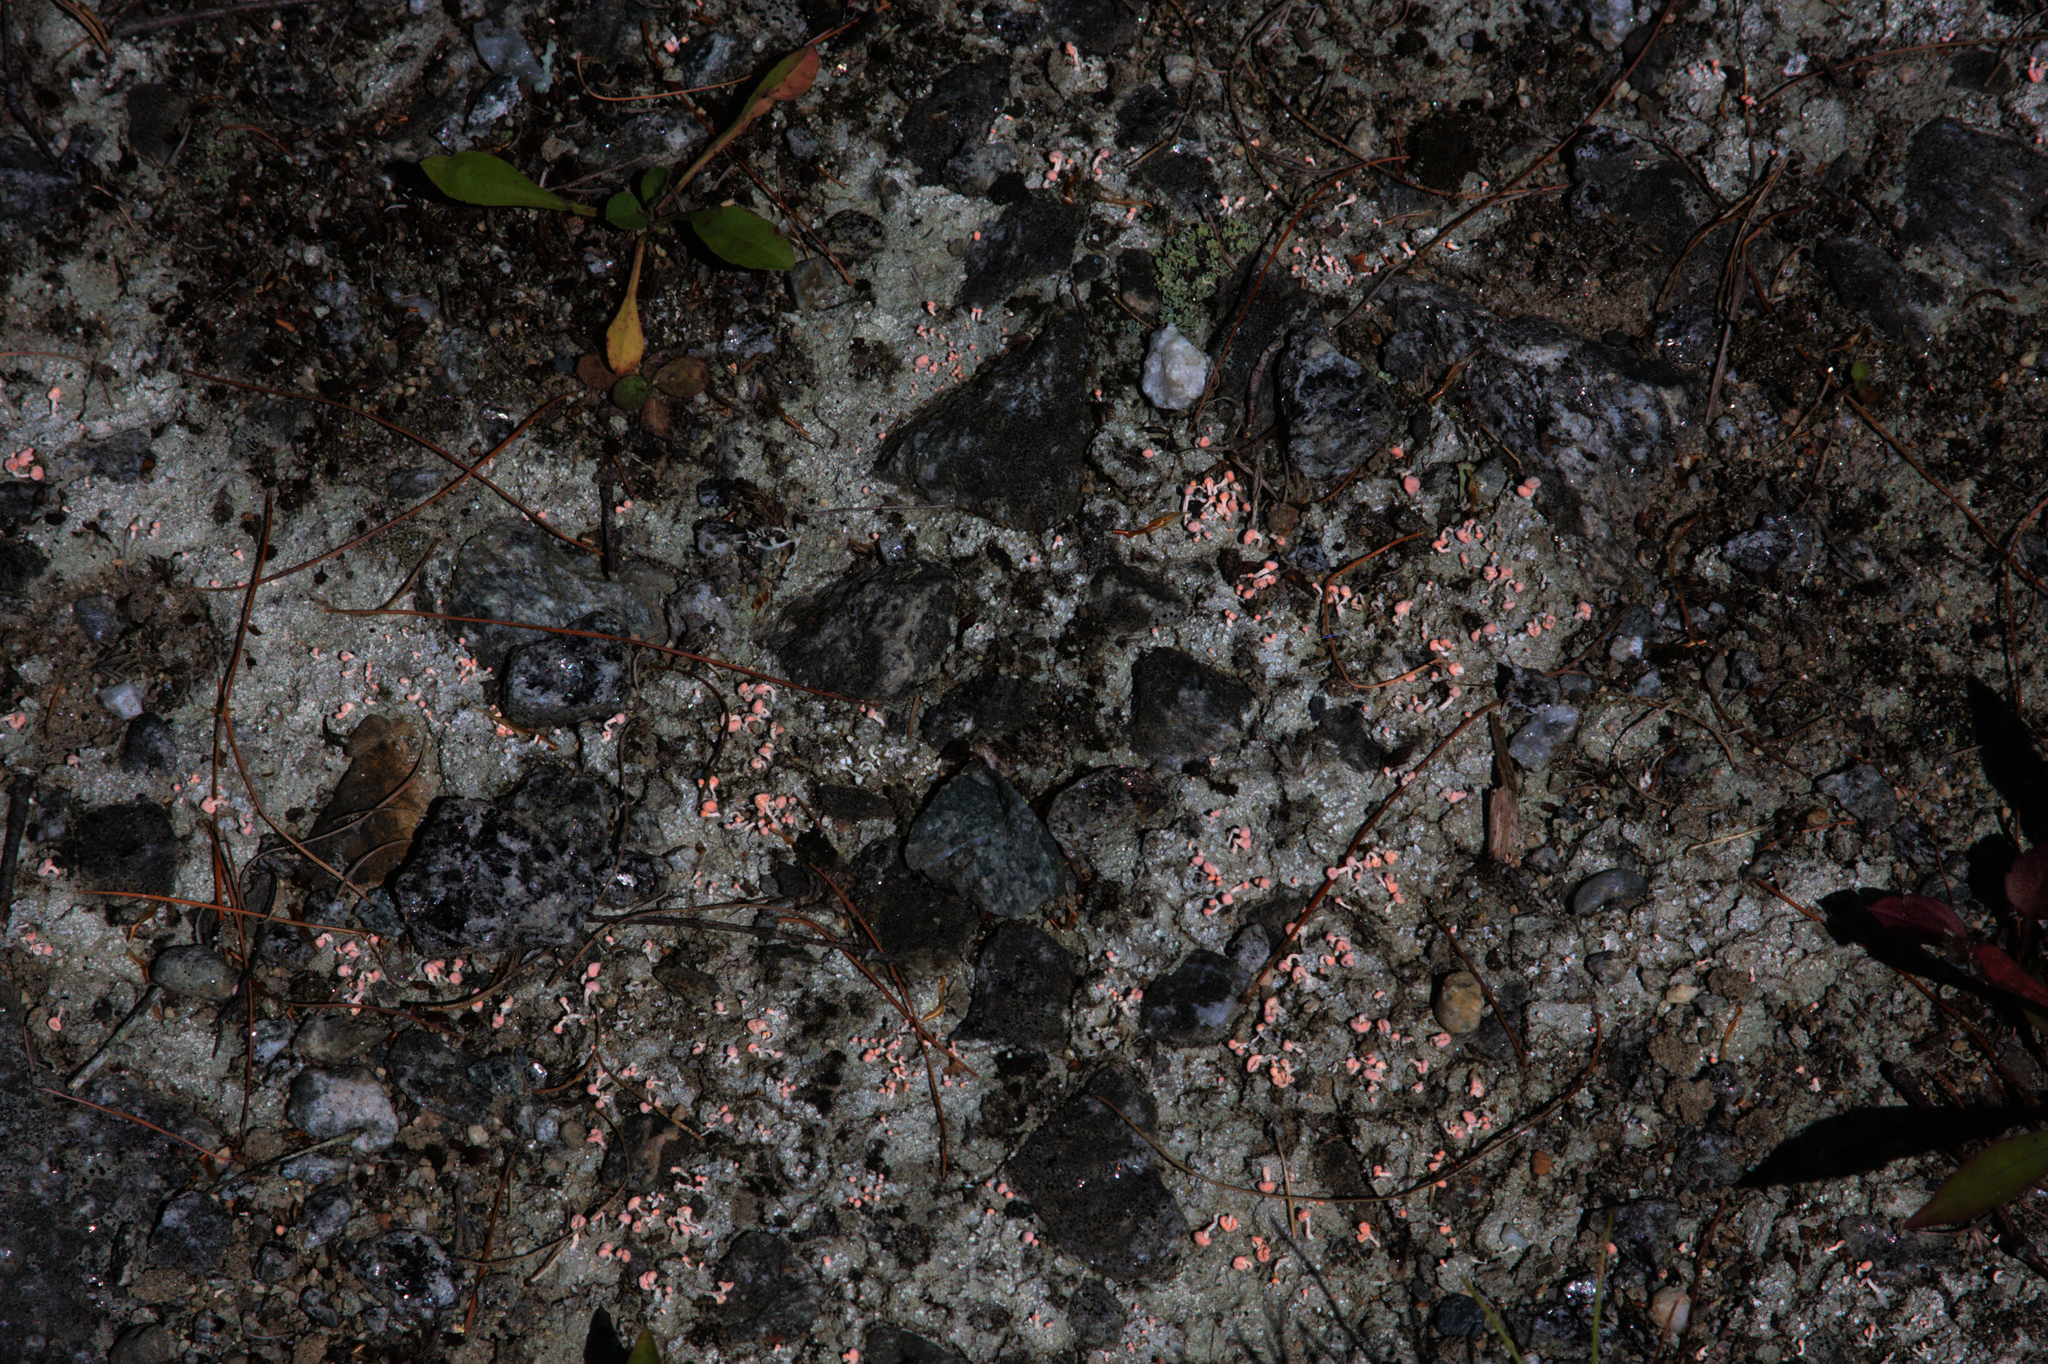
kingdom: Fungi
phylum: Ascomycota
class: Lecanoromycetes
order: Pertusariales
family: Icmadophilaceae
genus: Dibaeis
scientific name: Dibaeis baeomyces
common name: Pink earth lichen
